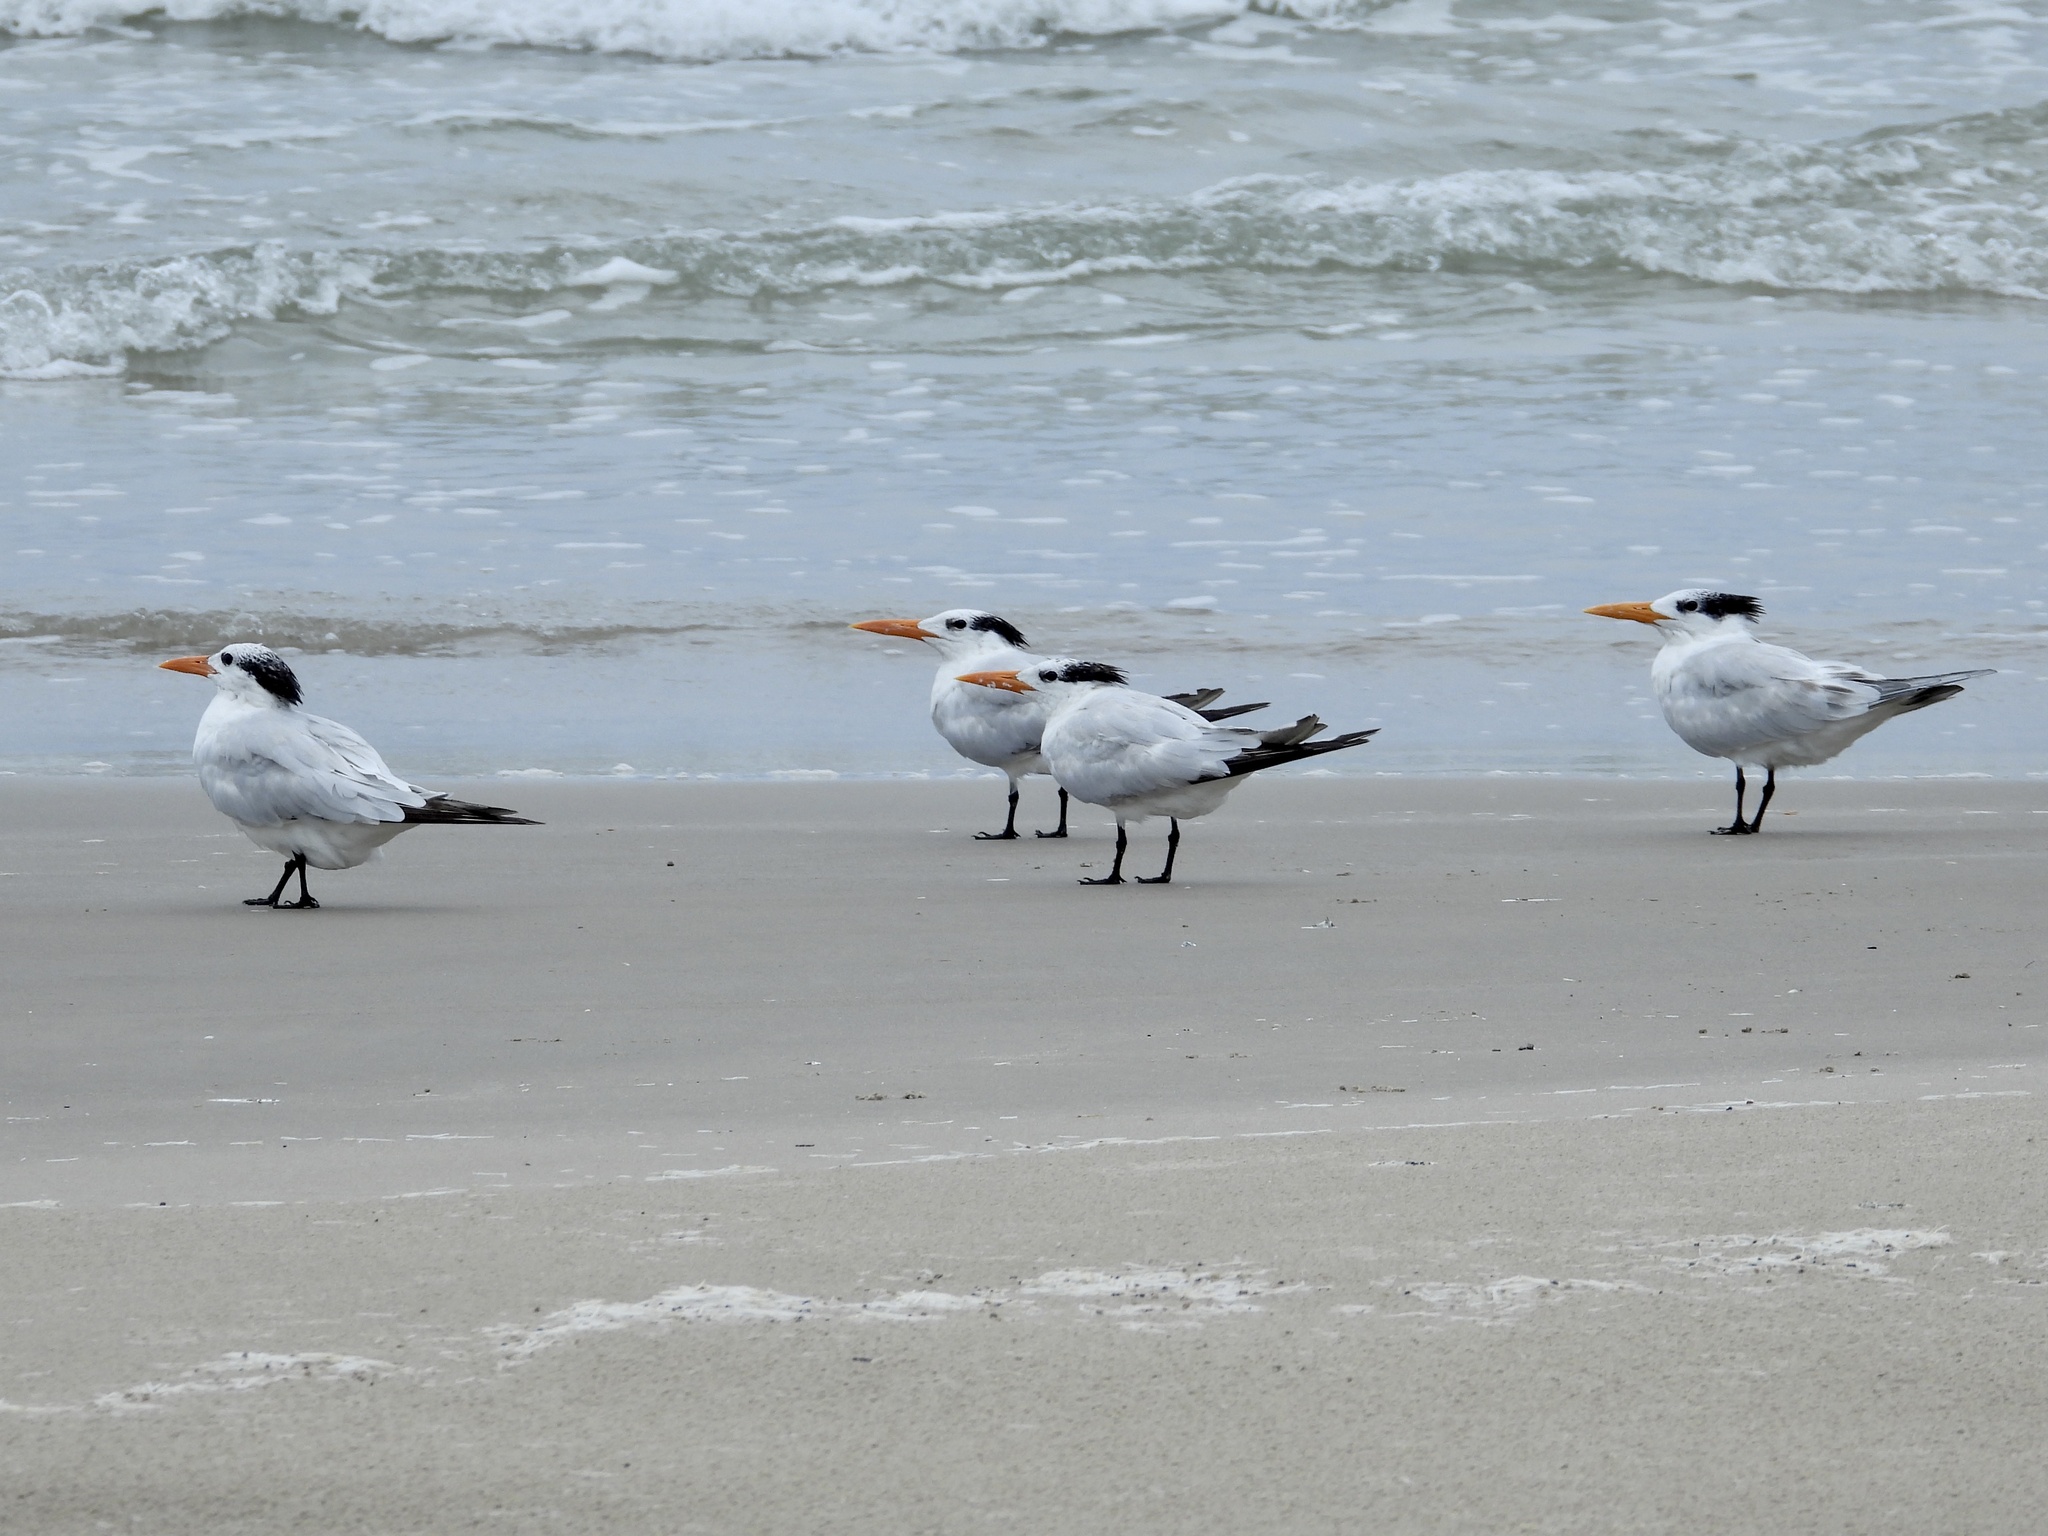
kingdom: Animalia
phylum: Chordata
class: Aves
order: Charadriiformes
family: Laridae
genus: Thalasseus
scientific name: Thalasseus maximus
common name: Royal tern
